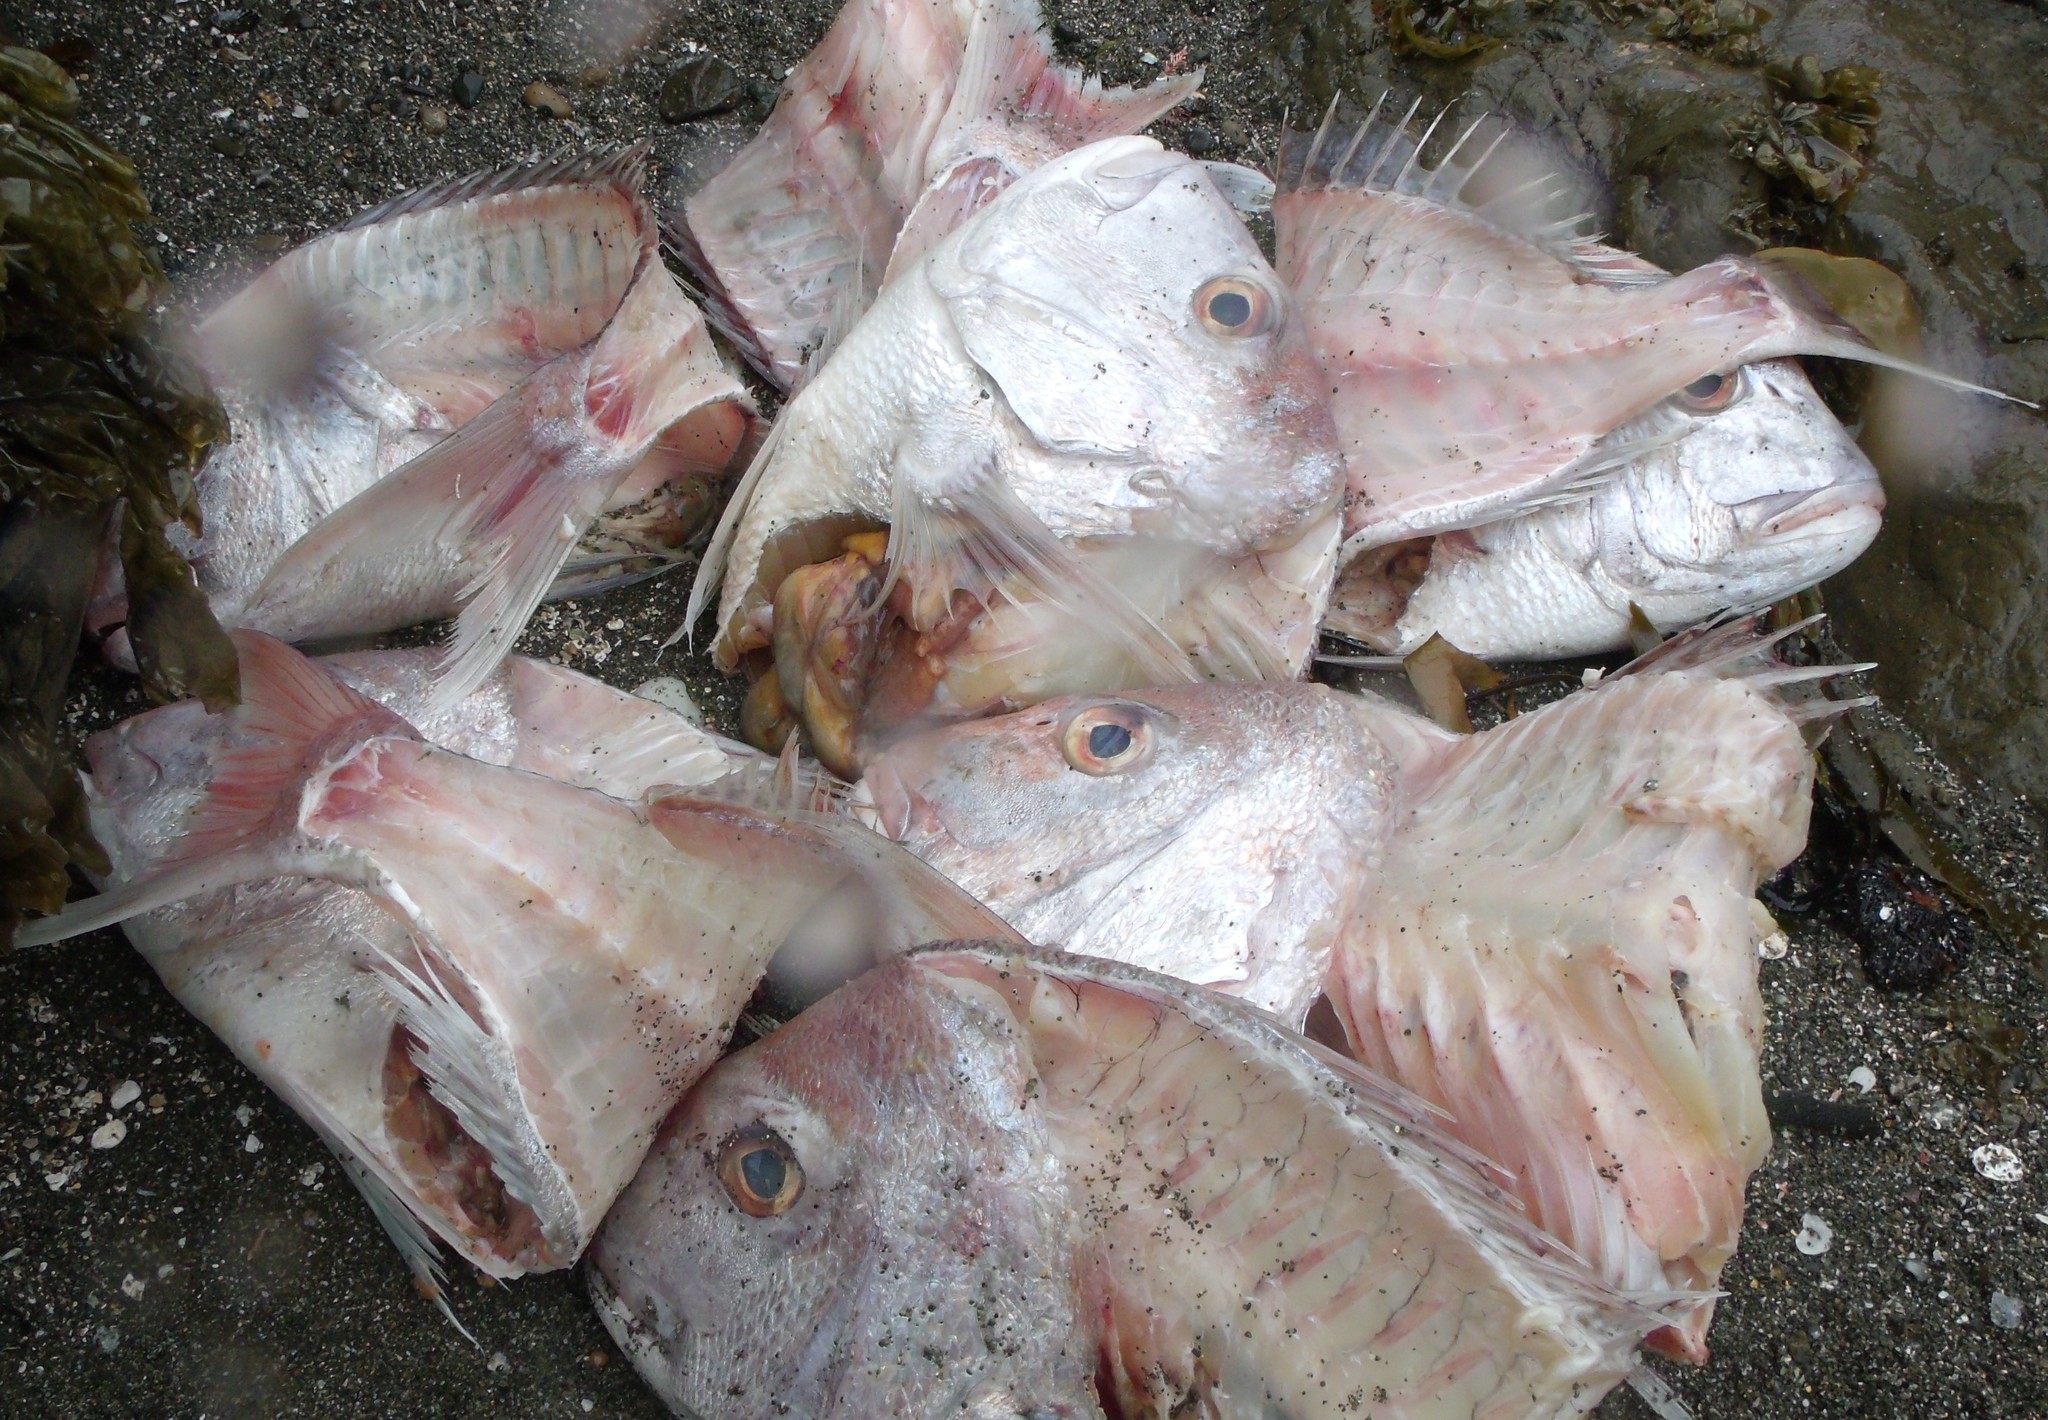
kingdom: Animalia
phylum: Chordata
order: Perciformes
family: Sparidae
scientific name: Sparidae
